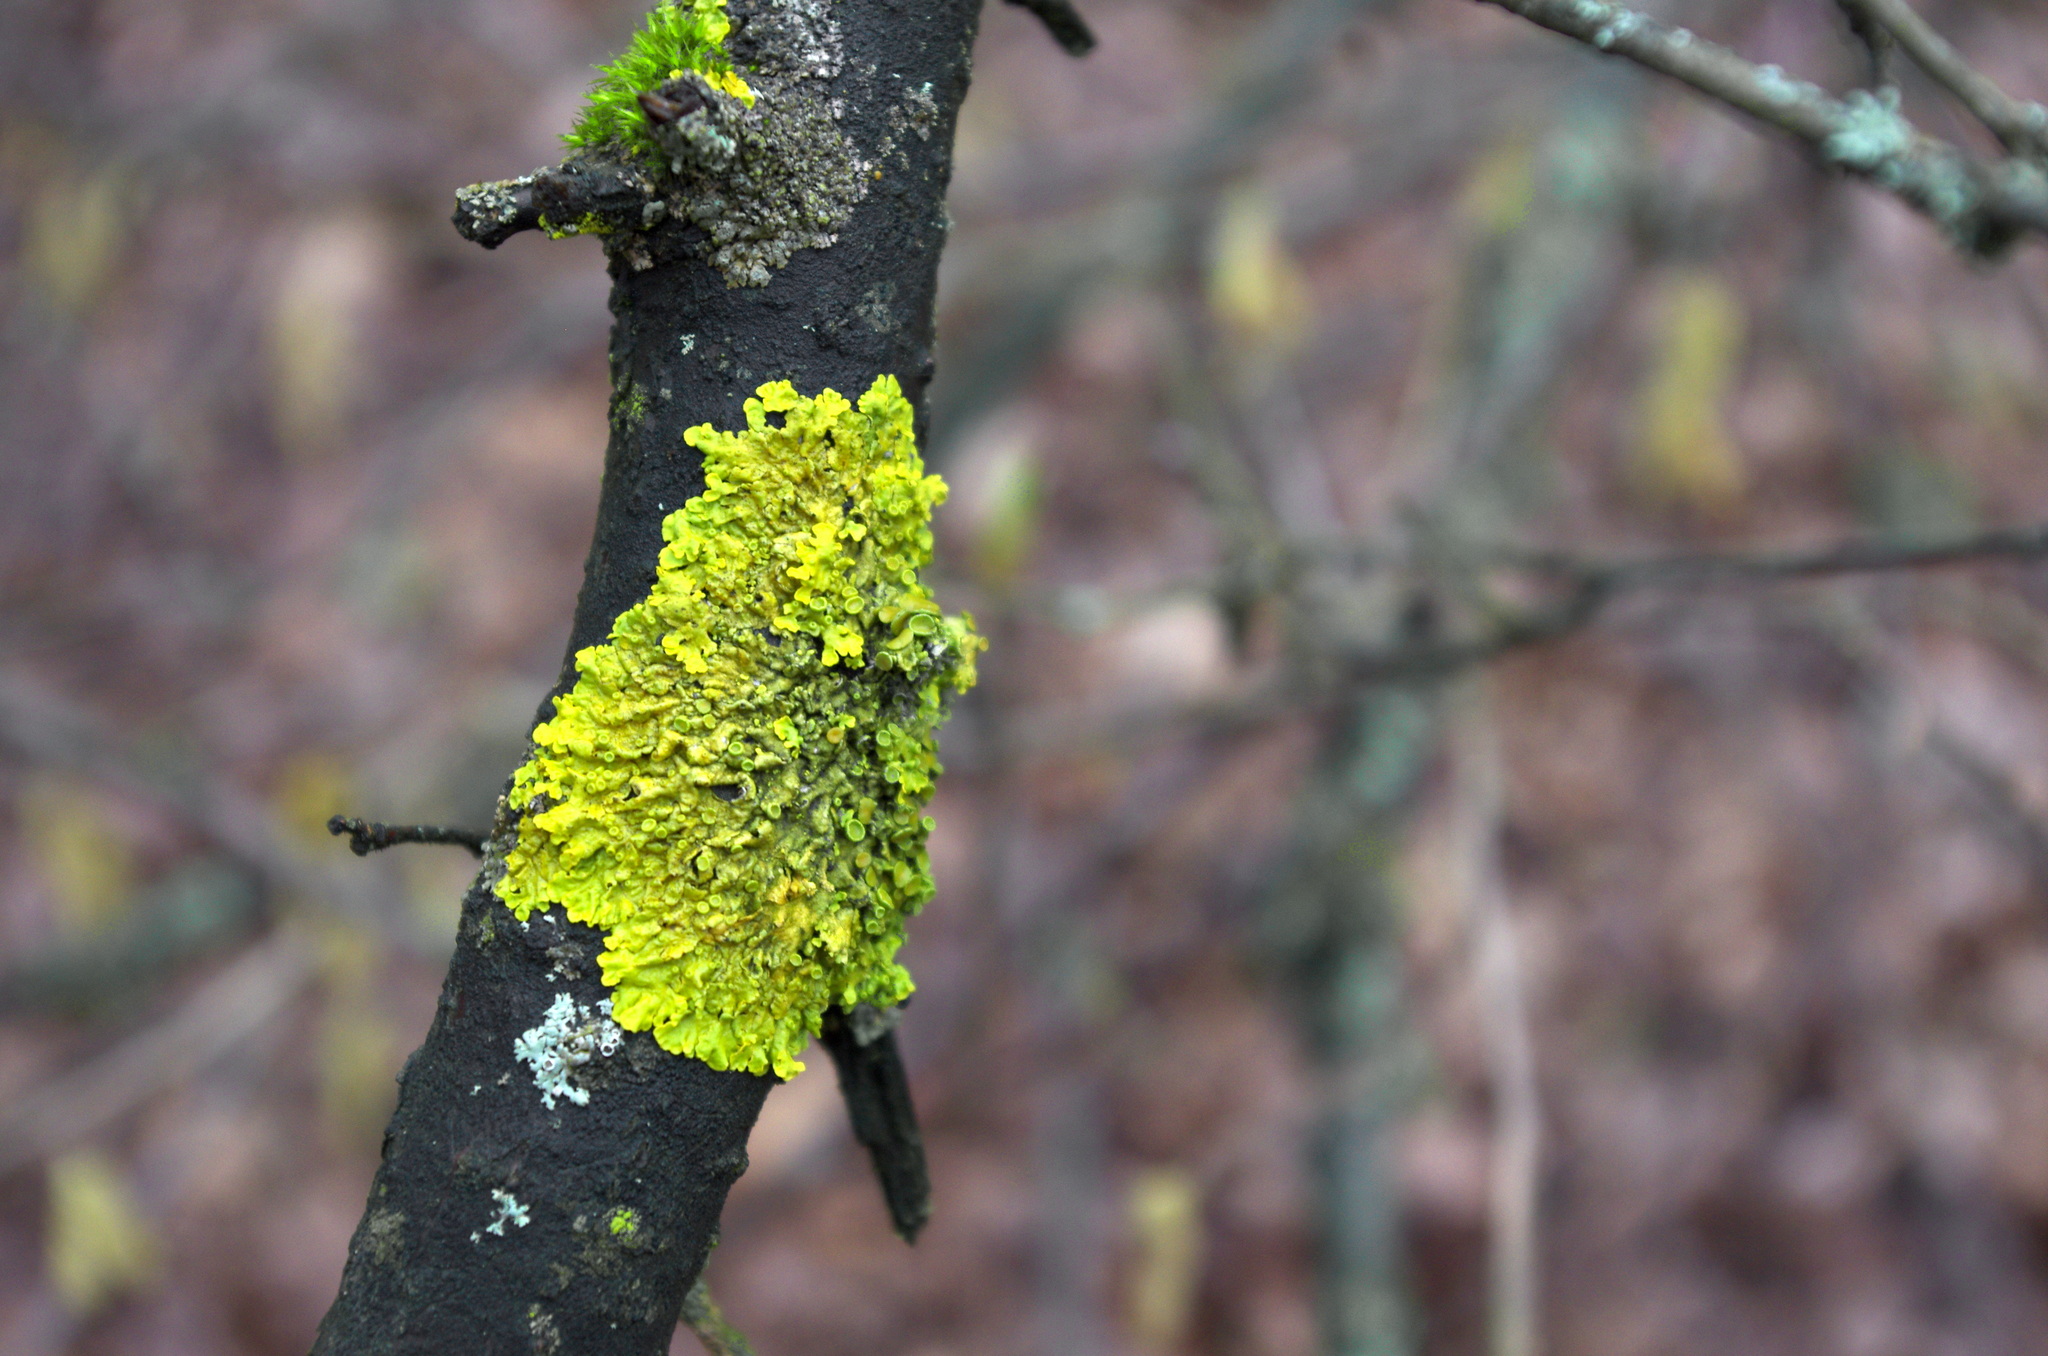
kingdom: Fungi
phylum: Ascomycota
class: Lecanoromycetes
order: Teloschistales
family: Teloschistaceae
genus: Xanthoria
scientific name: Xanthoria parietina
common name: Common orange lichen
